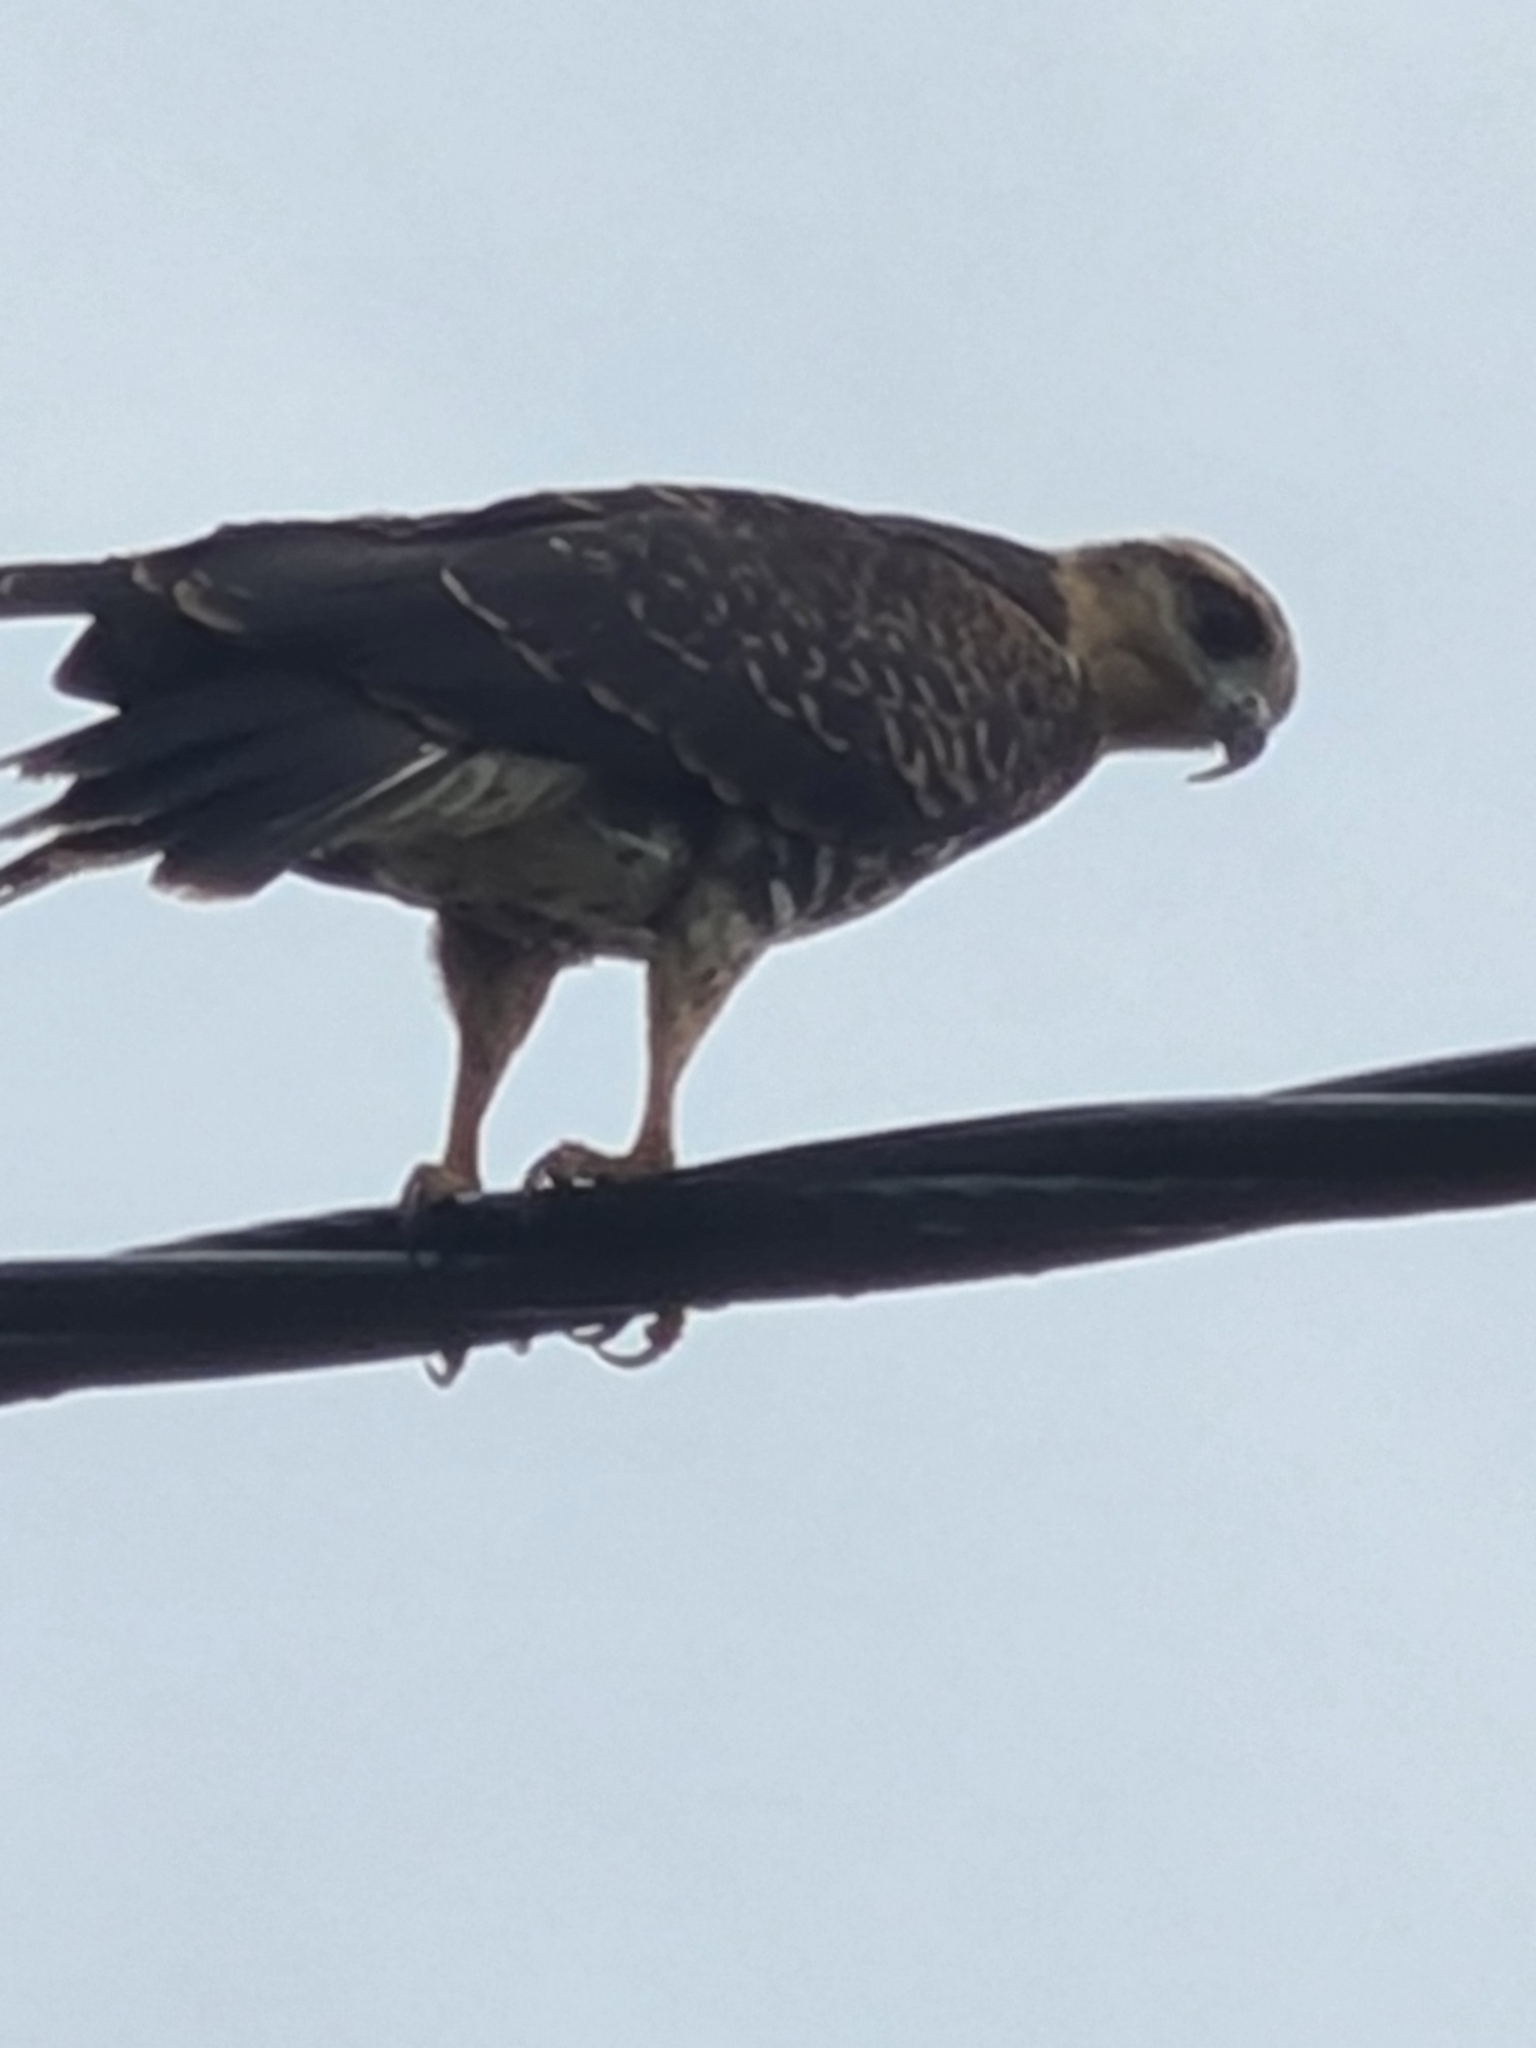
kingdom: Animalia
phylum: Chordata
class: Aves
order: Accipitriformes
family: Accipitridae
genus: Rostrhamus
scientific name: Rostrhamus sociabilis
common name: Snail kite
